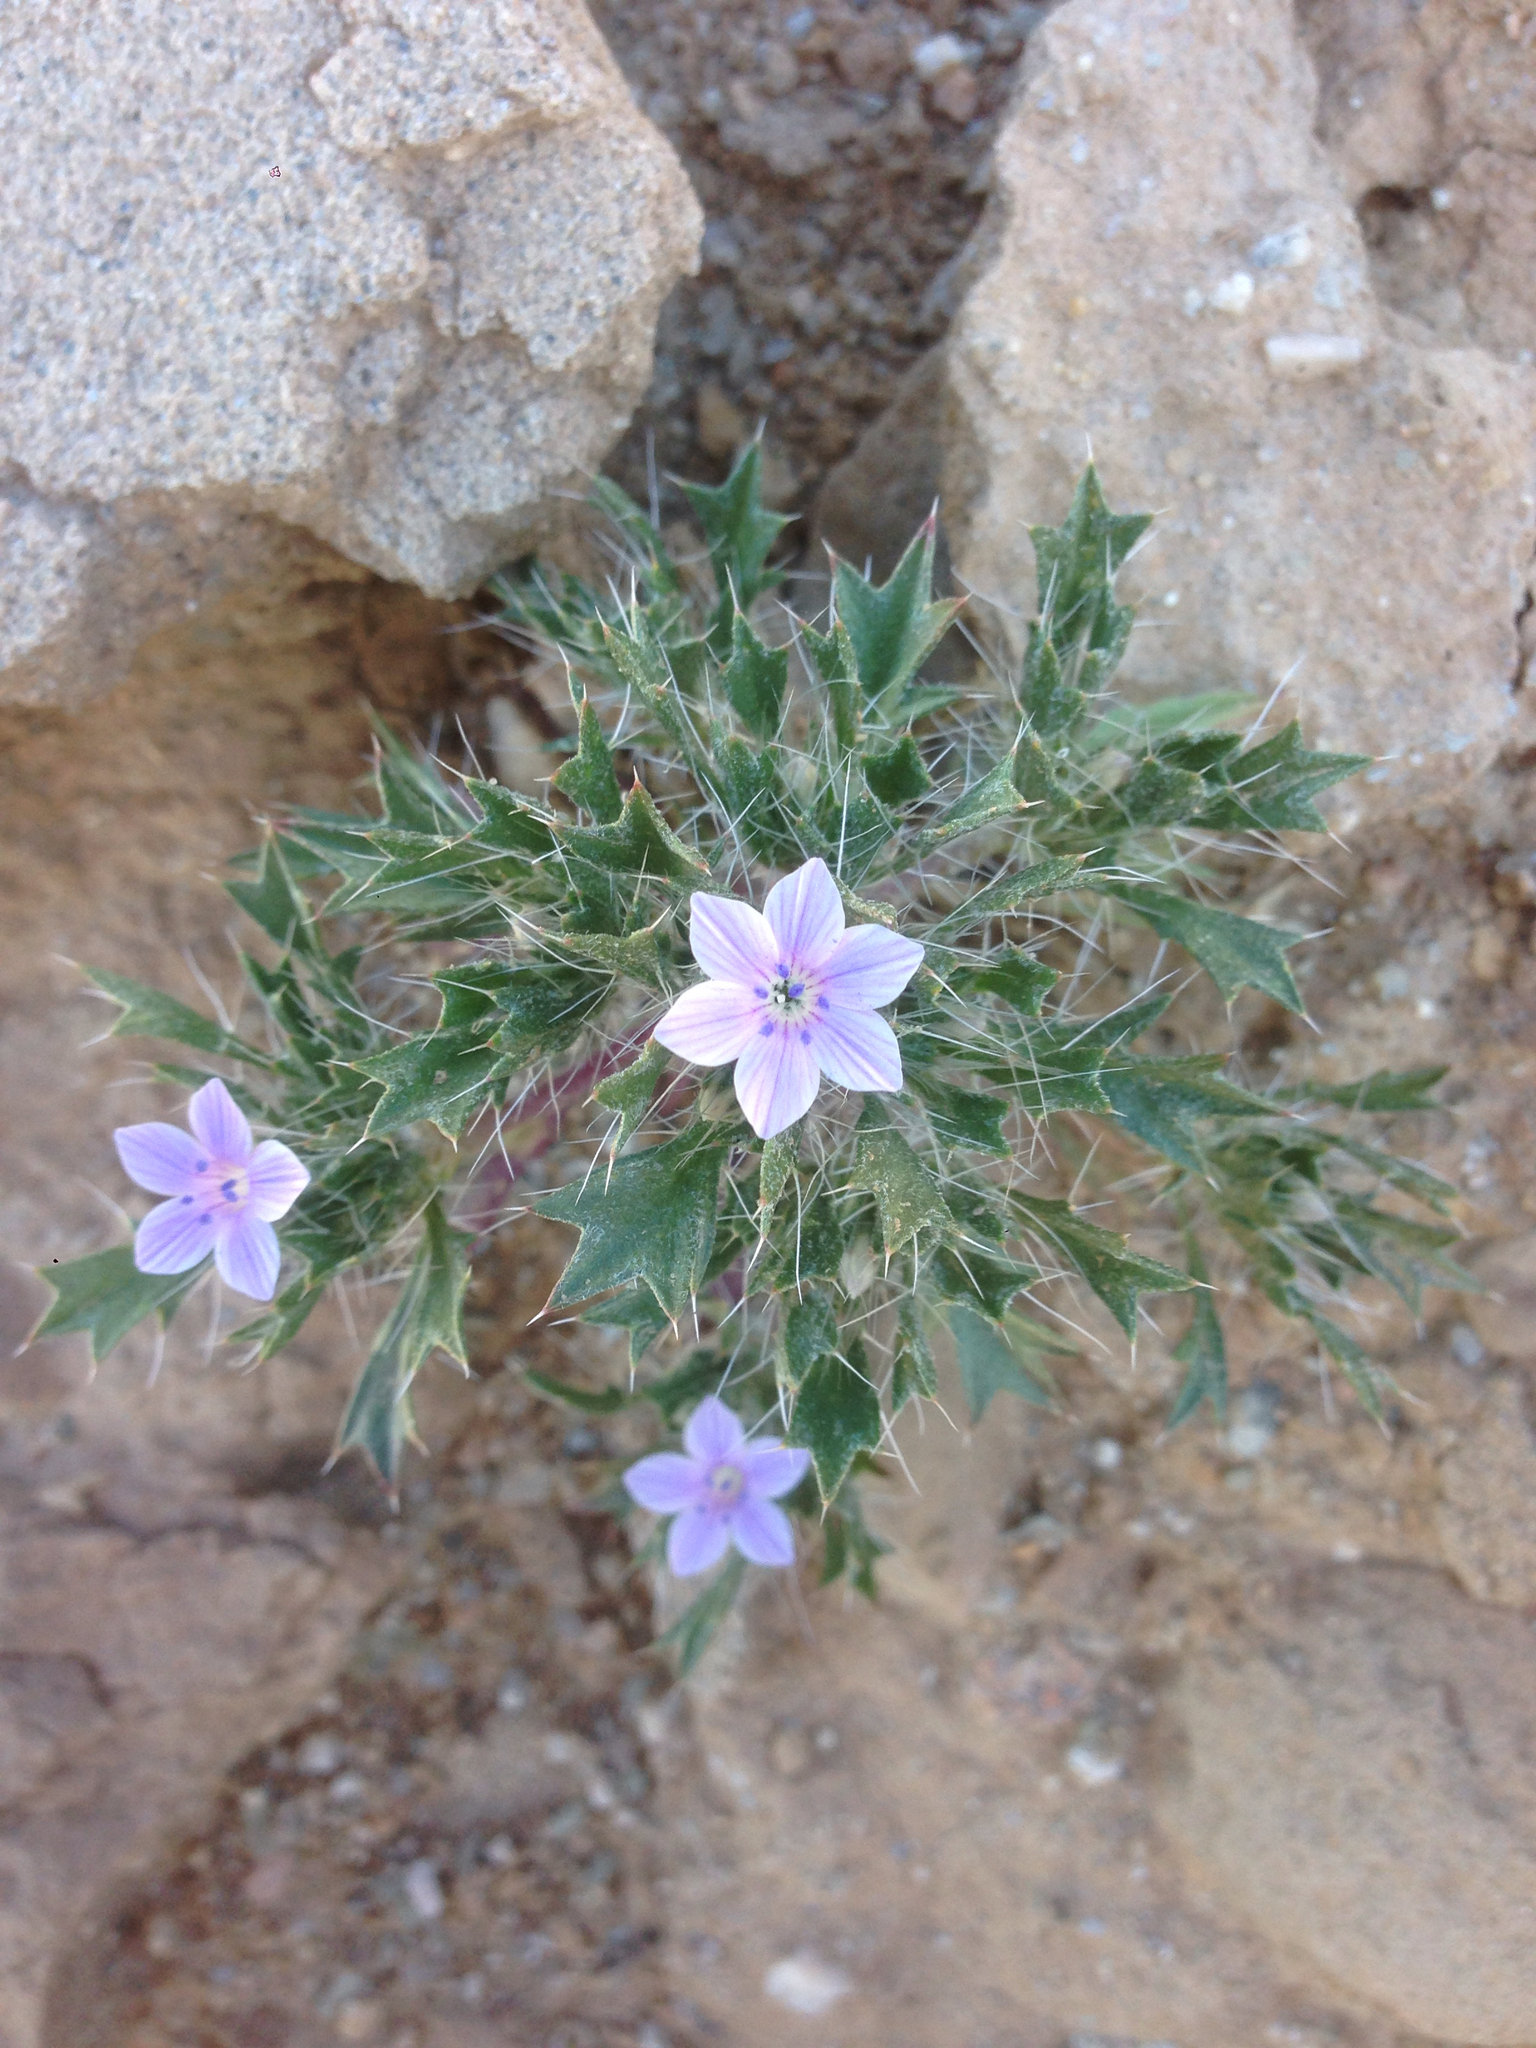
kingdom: Plantae
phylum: Tracheophyta
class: Magnoliopsida
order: Ericales
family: Polemoniaceae
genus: Langloisia
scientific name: Langloisia setosissima
